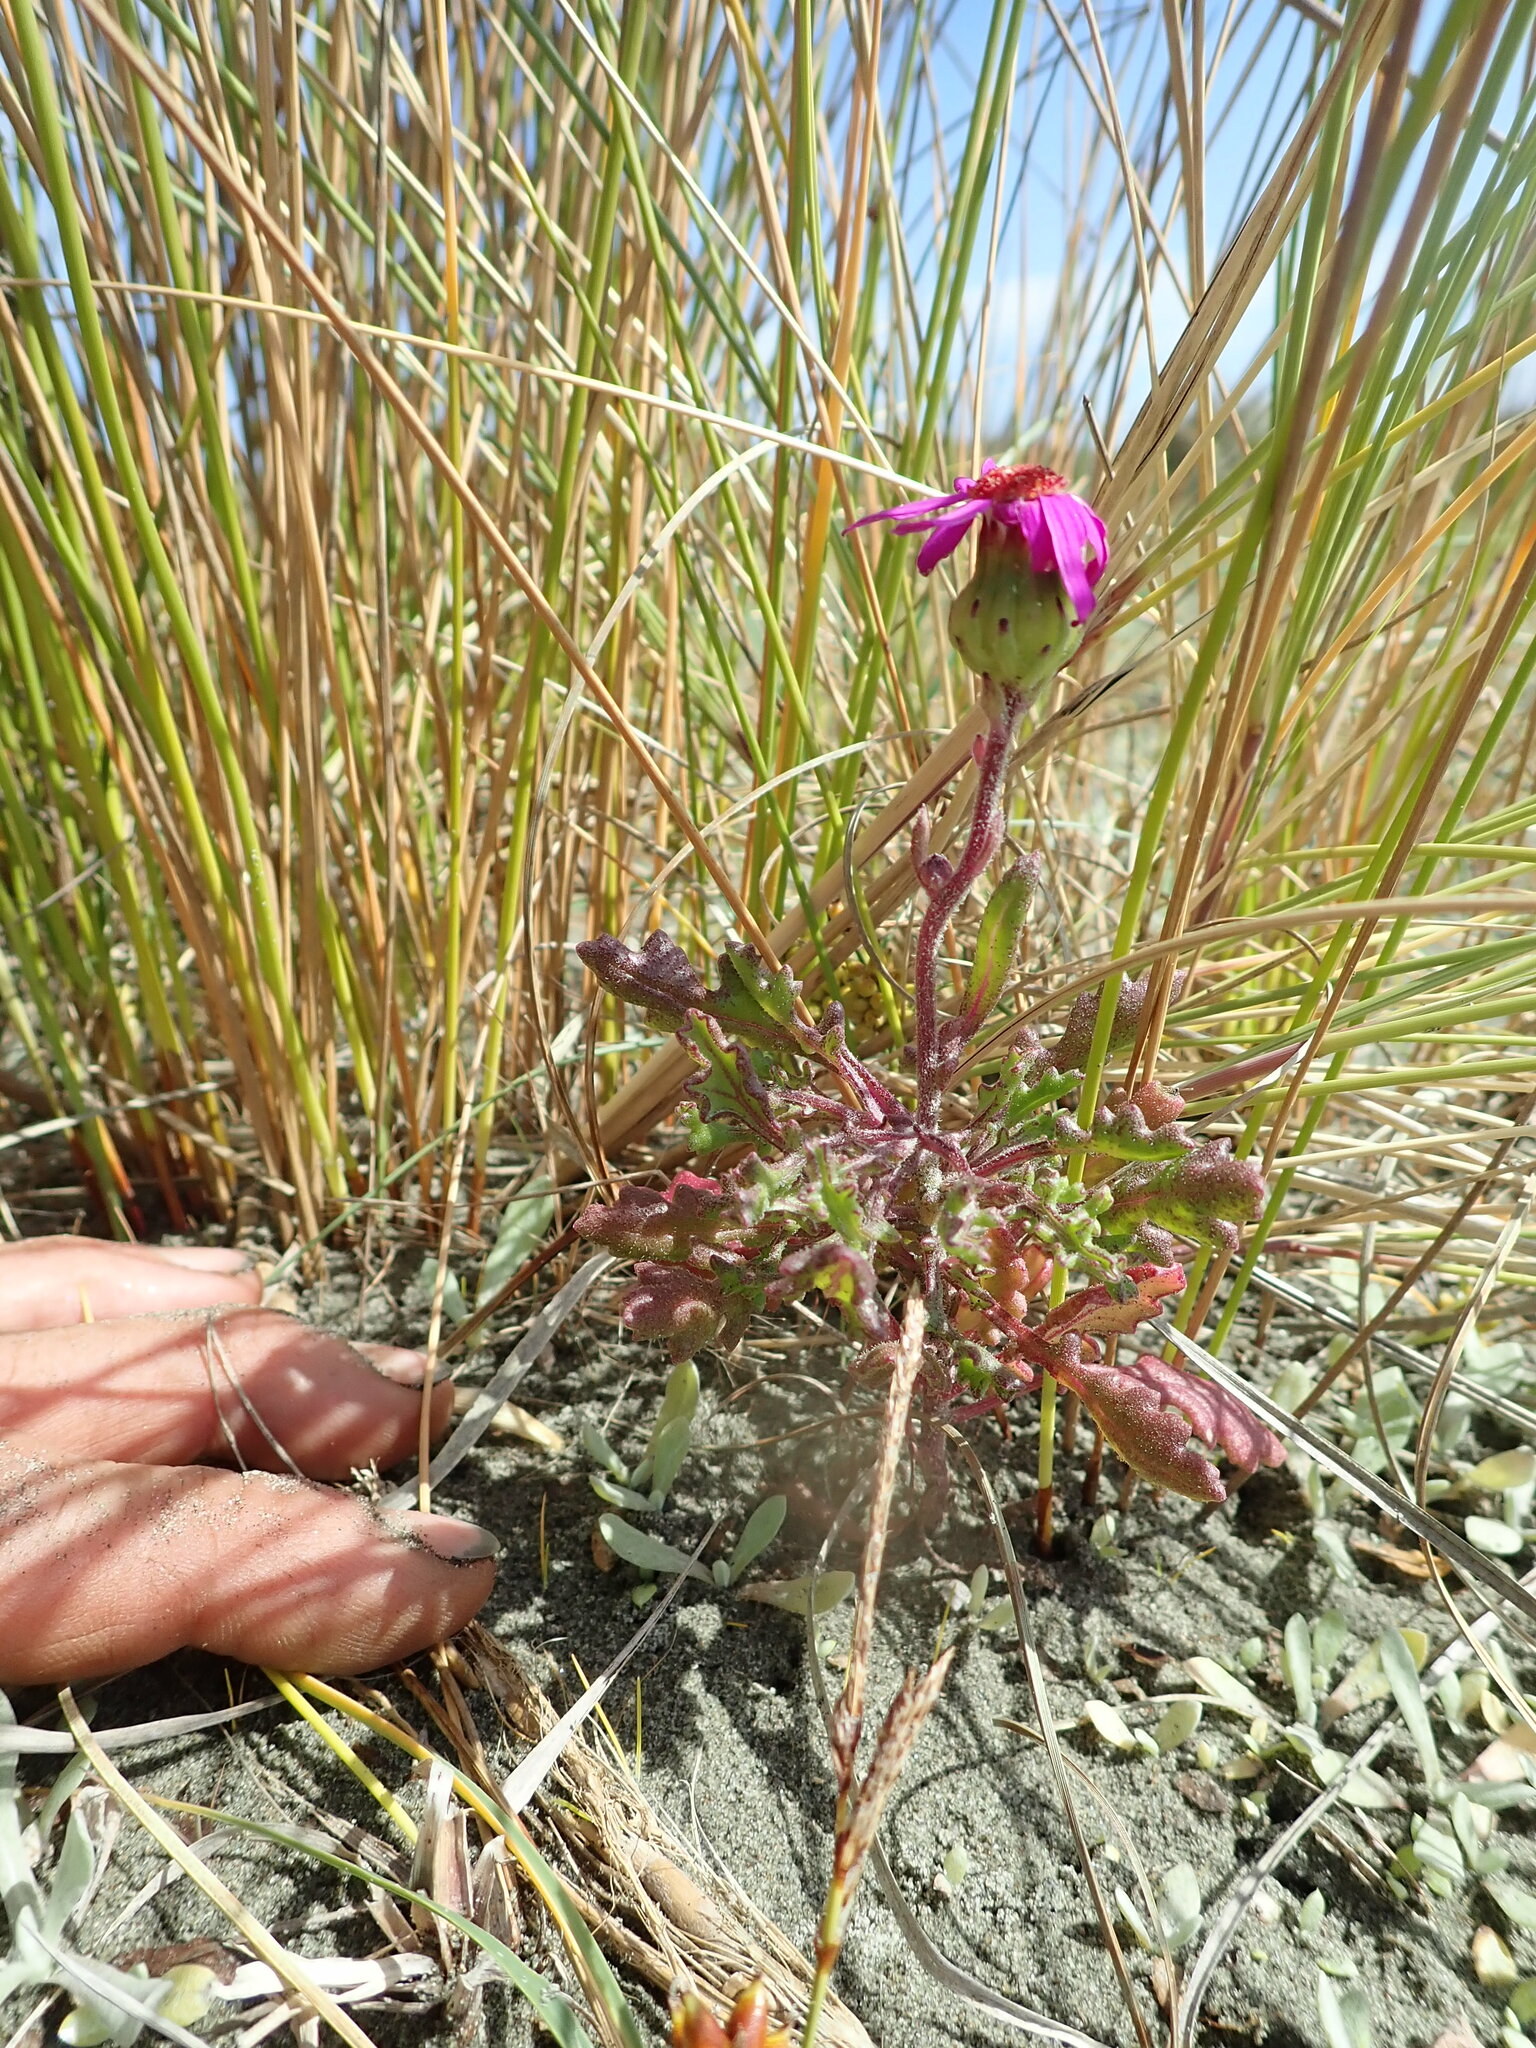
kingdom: Plantae
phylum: Tracheophyta
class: Magnoliopsida
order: Asterales
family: Asteraceae
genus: Senecio
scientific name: Senecio elegans
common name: Purple groundsel
